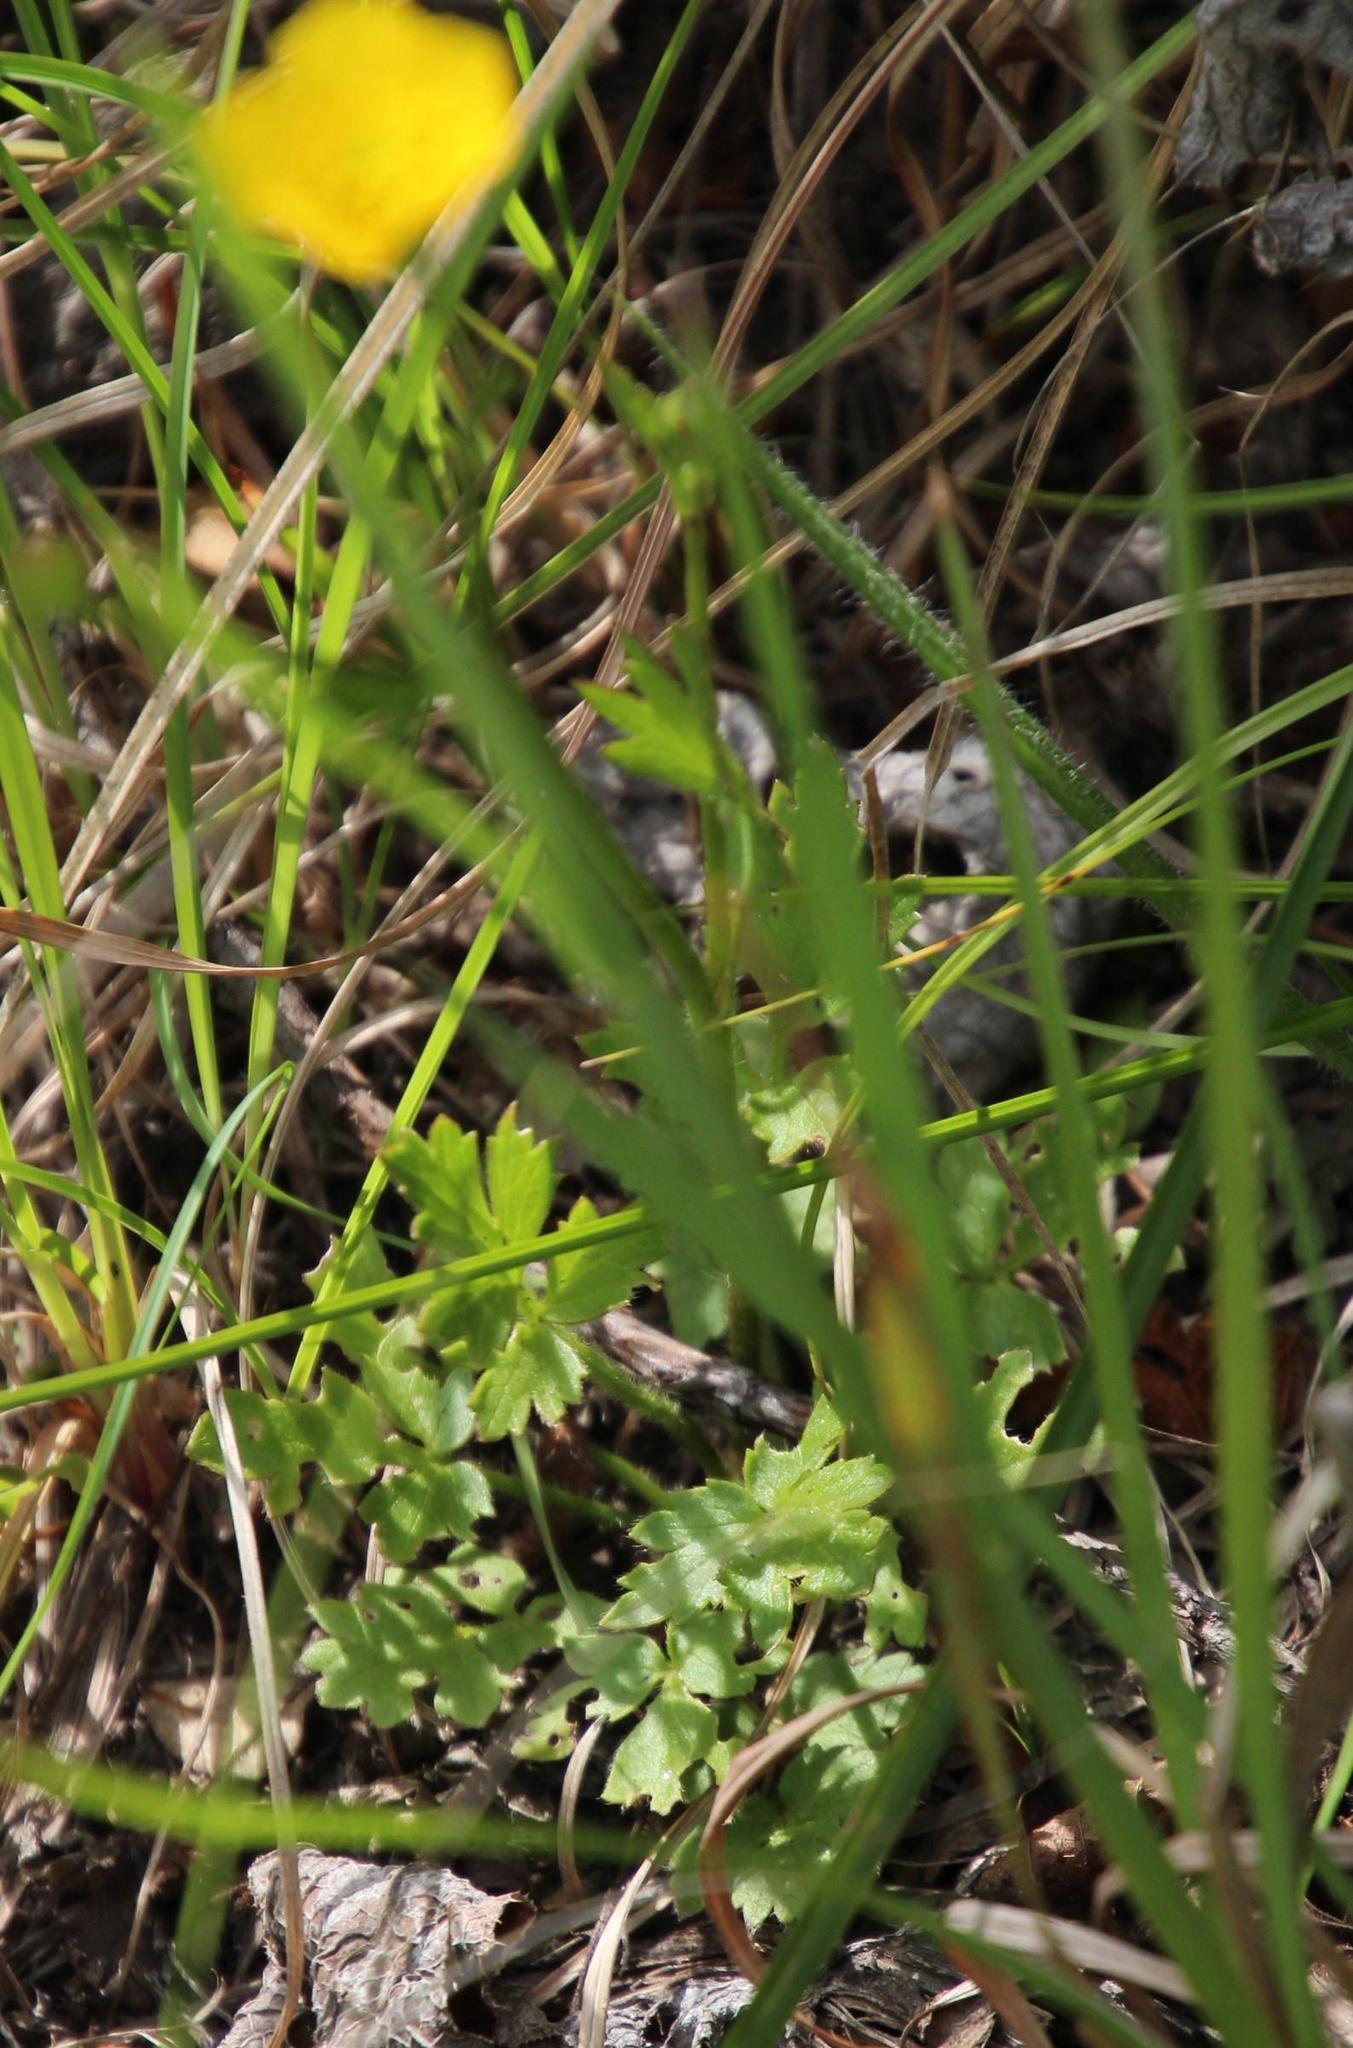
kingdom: Plantae
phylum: Tracheophyta
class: Magnoliopsida
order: Ranunculales
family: Ranunculaceae
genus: Ranunculus
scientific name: Ranunculus multifidus
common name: Wild buttercup
